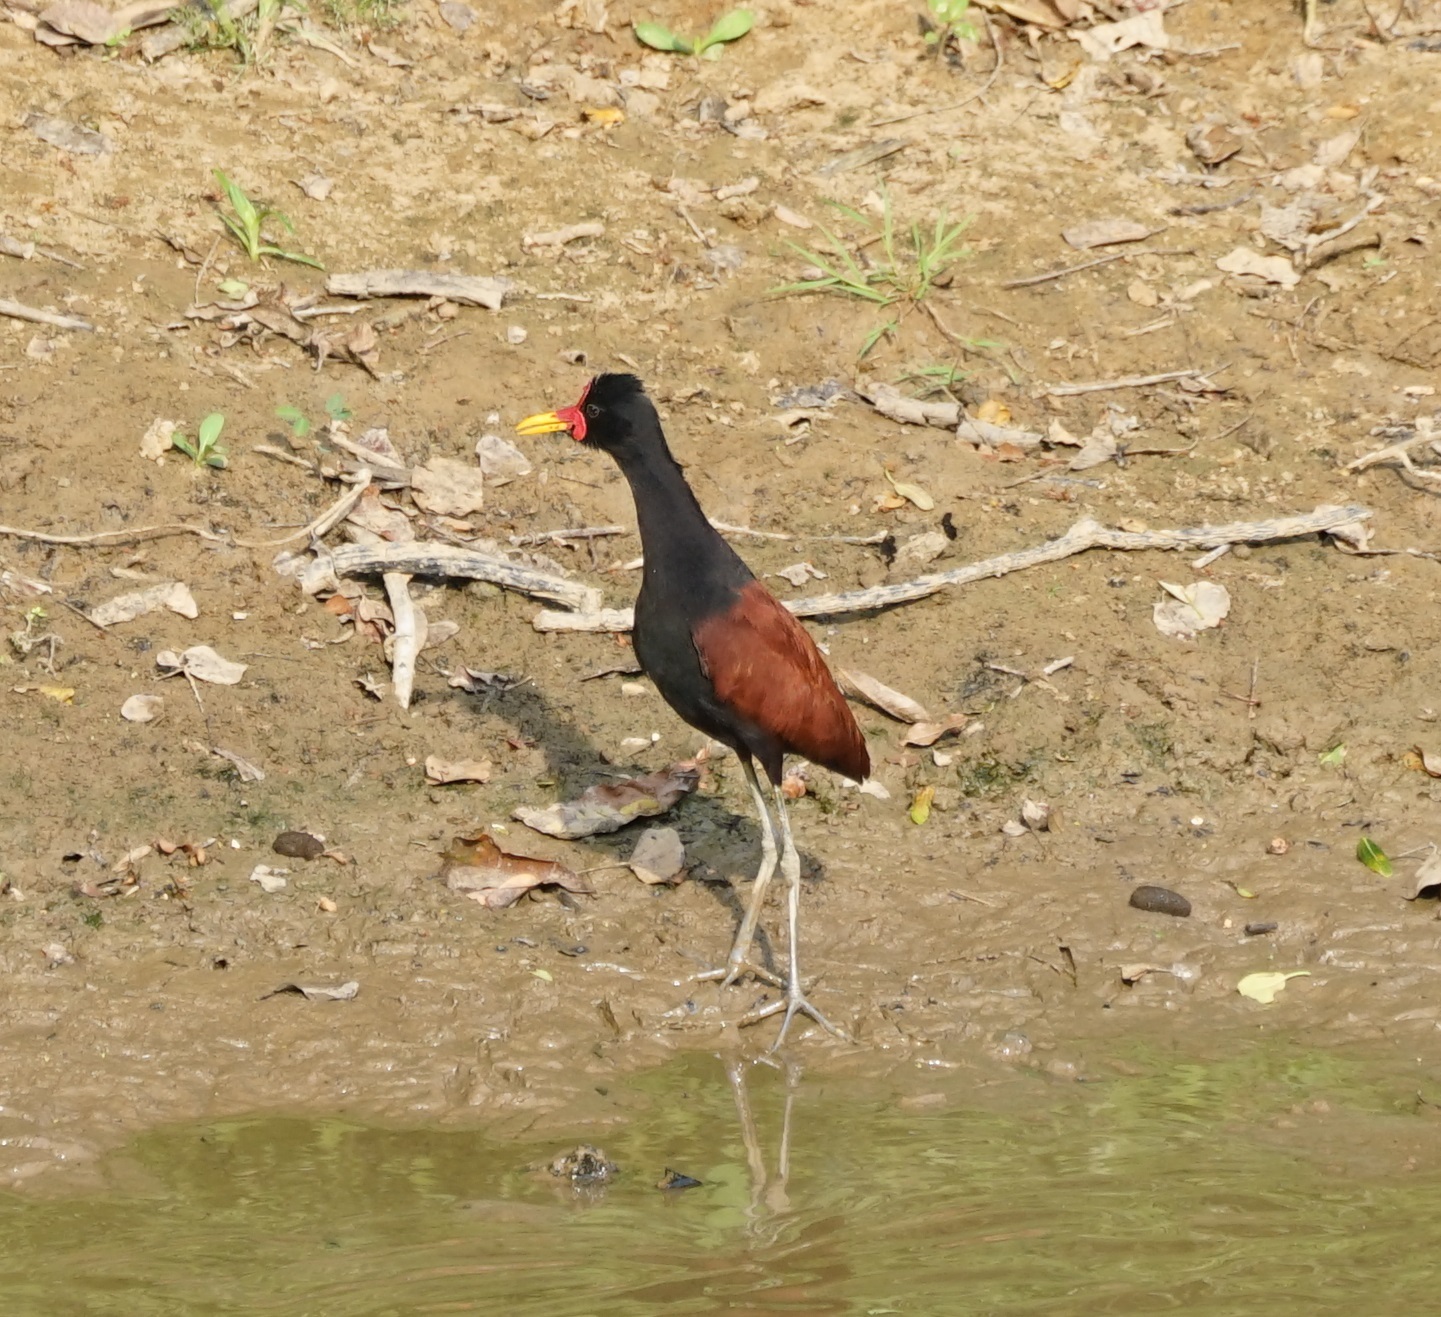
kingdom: Animalia
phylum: Chordata
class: Aves
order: Charadriiformes
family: Jacanidae
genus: Jacana
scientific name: Jacana jacana
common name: Wattled jacana
